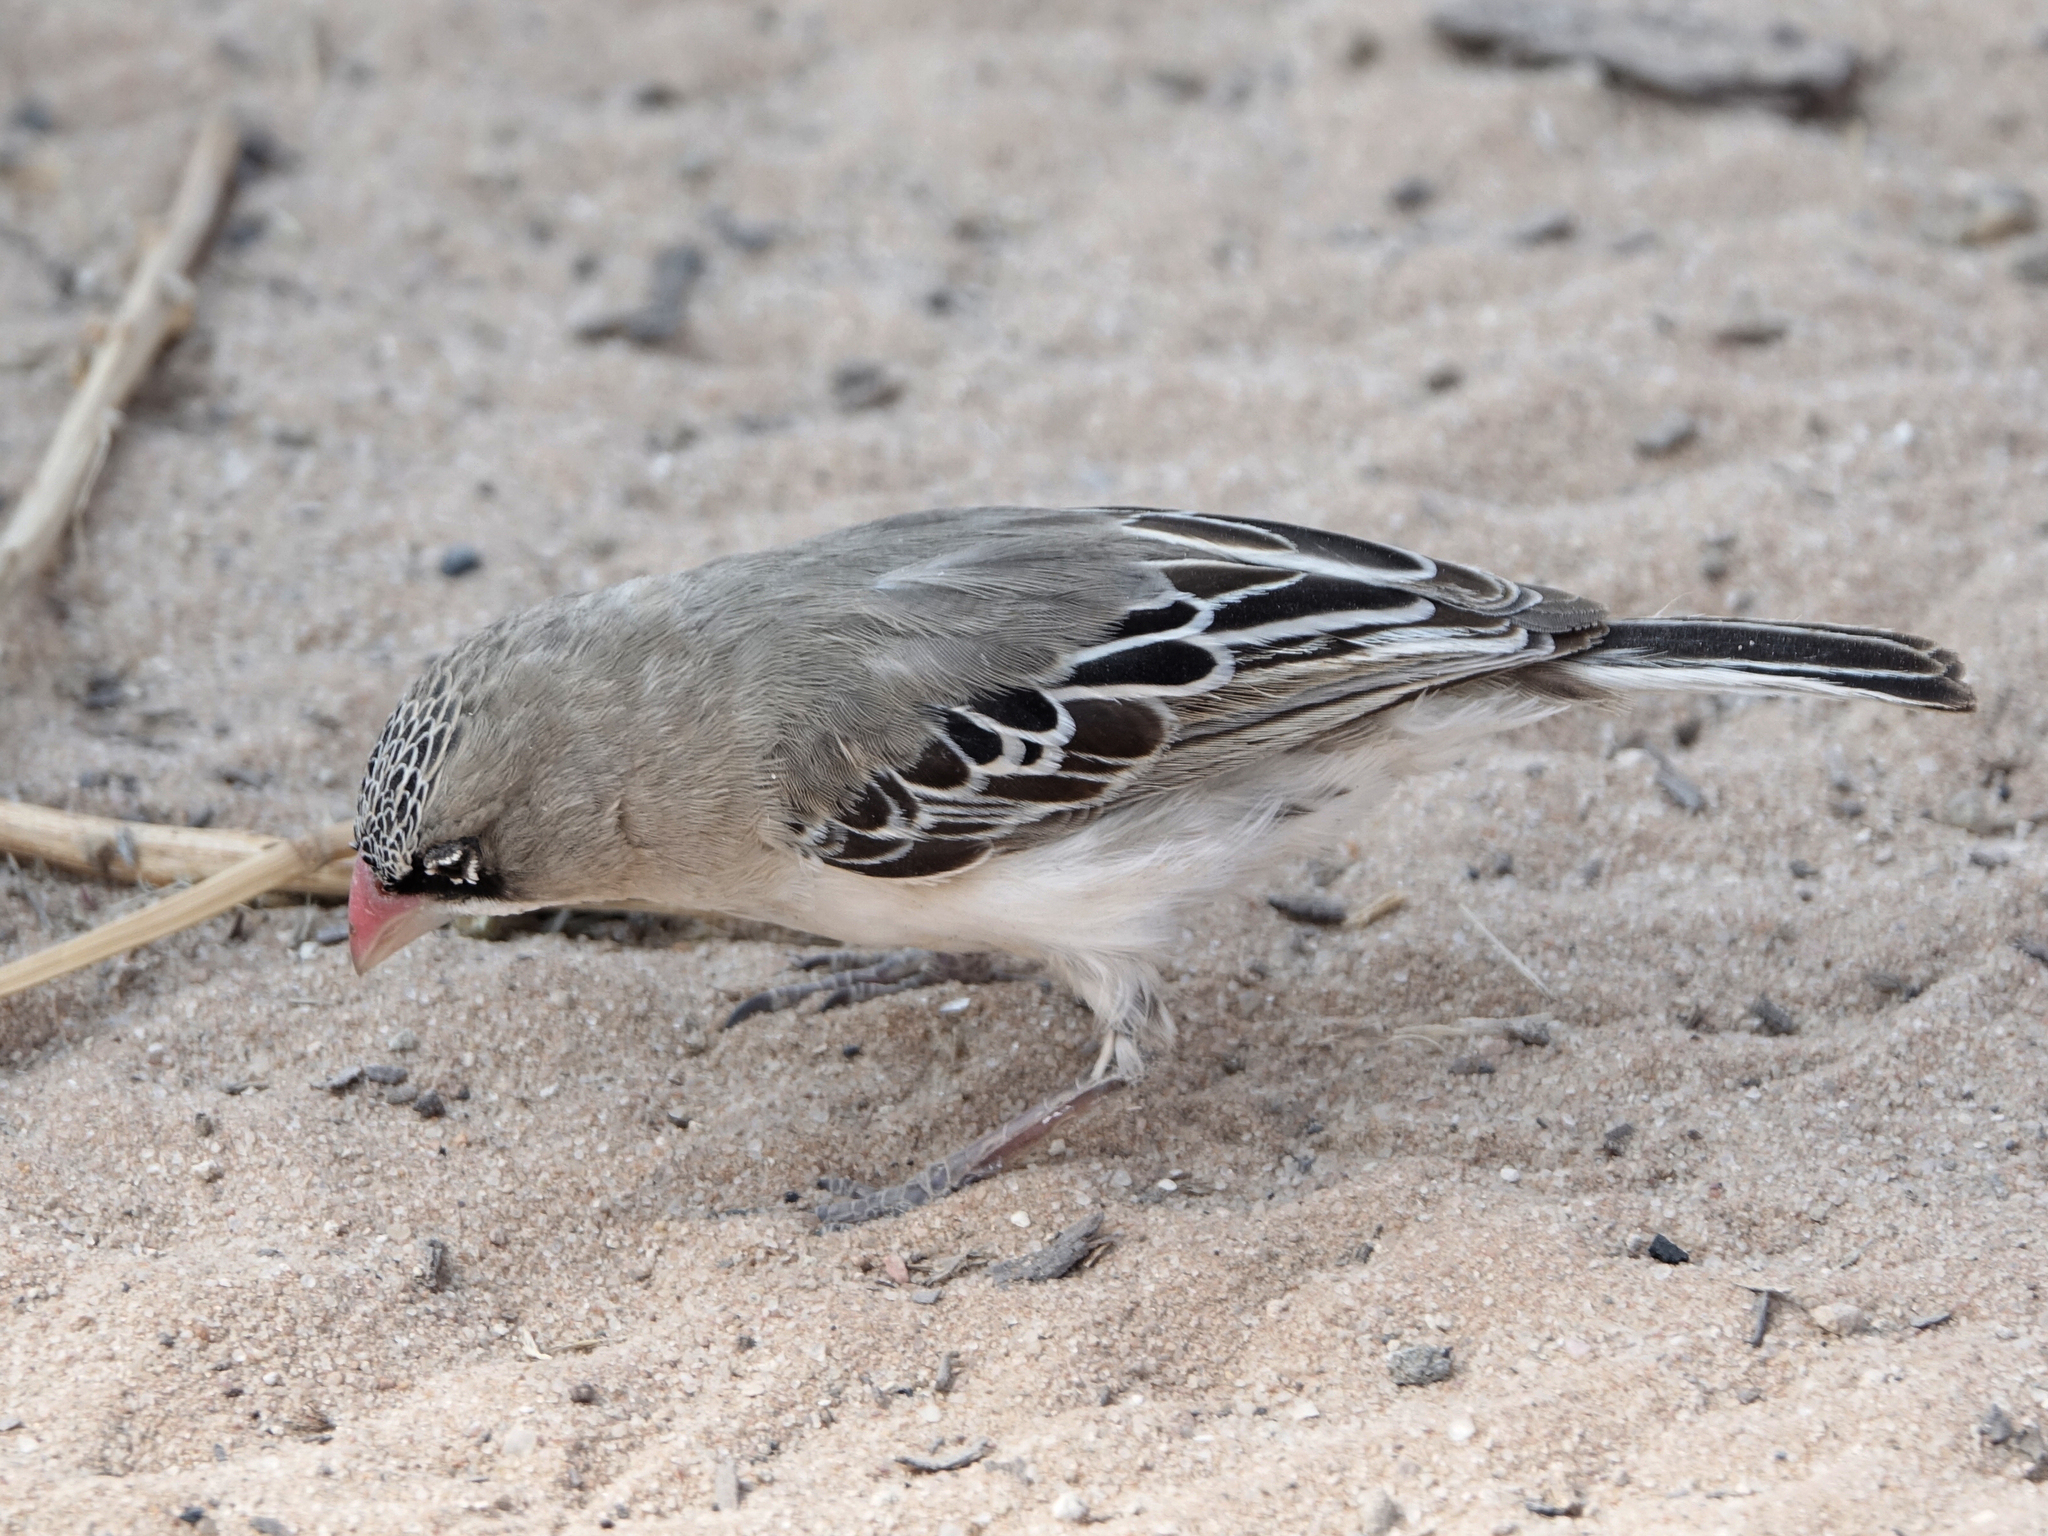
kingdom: Animalia
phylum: Chordata
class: Aves
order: Passeriformes
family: Ploceidae
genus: Sporopipes
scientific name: Sporopipes squamifrons
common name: Scaly-feathered weaver
